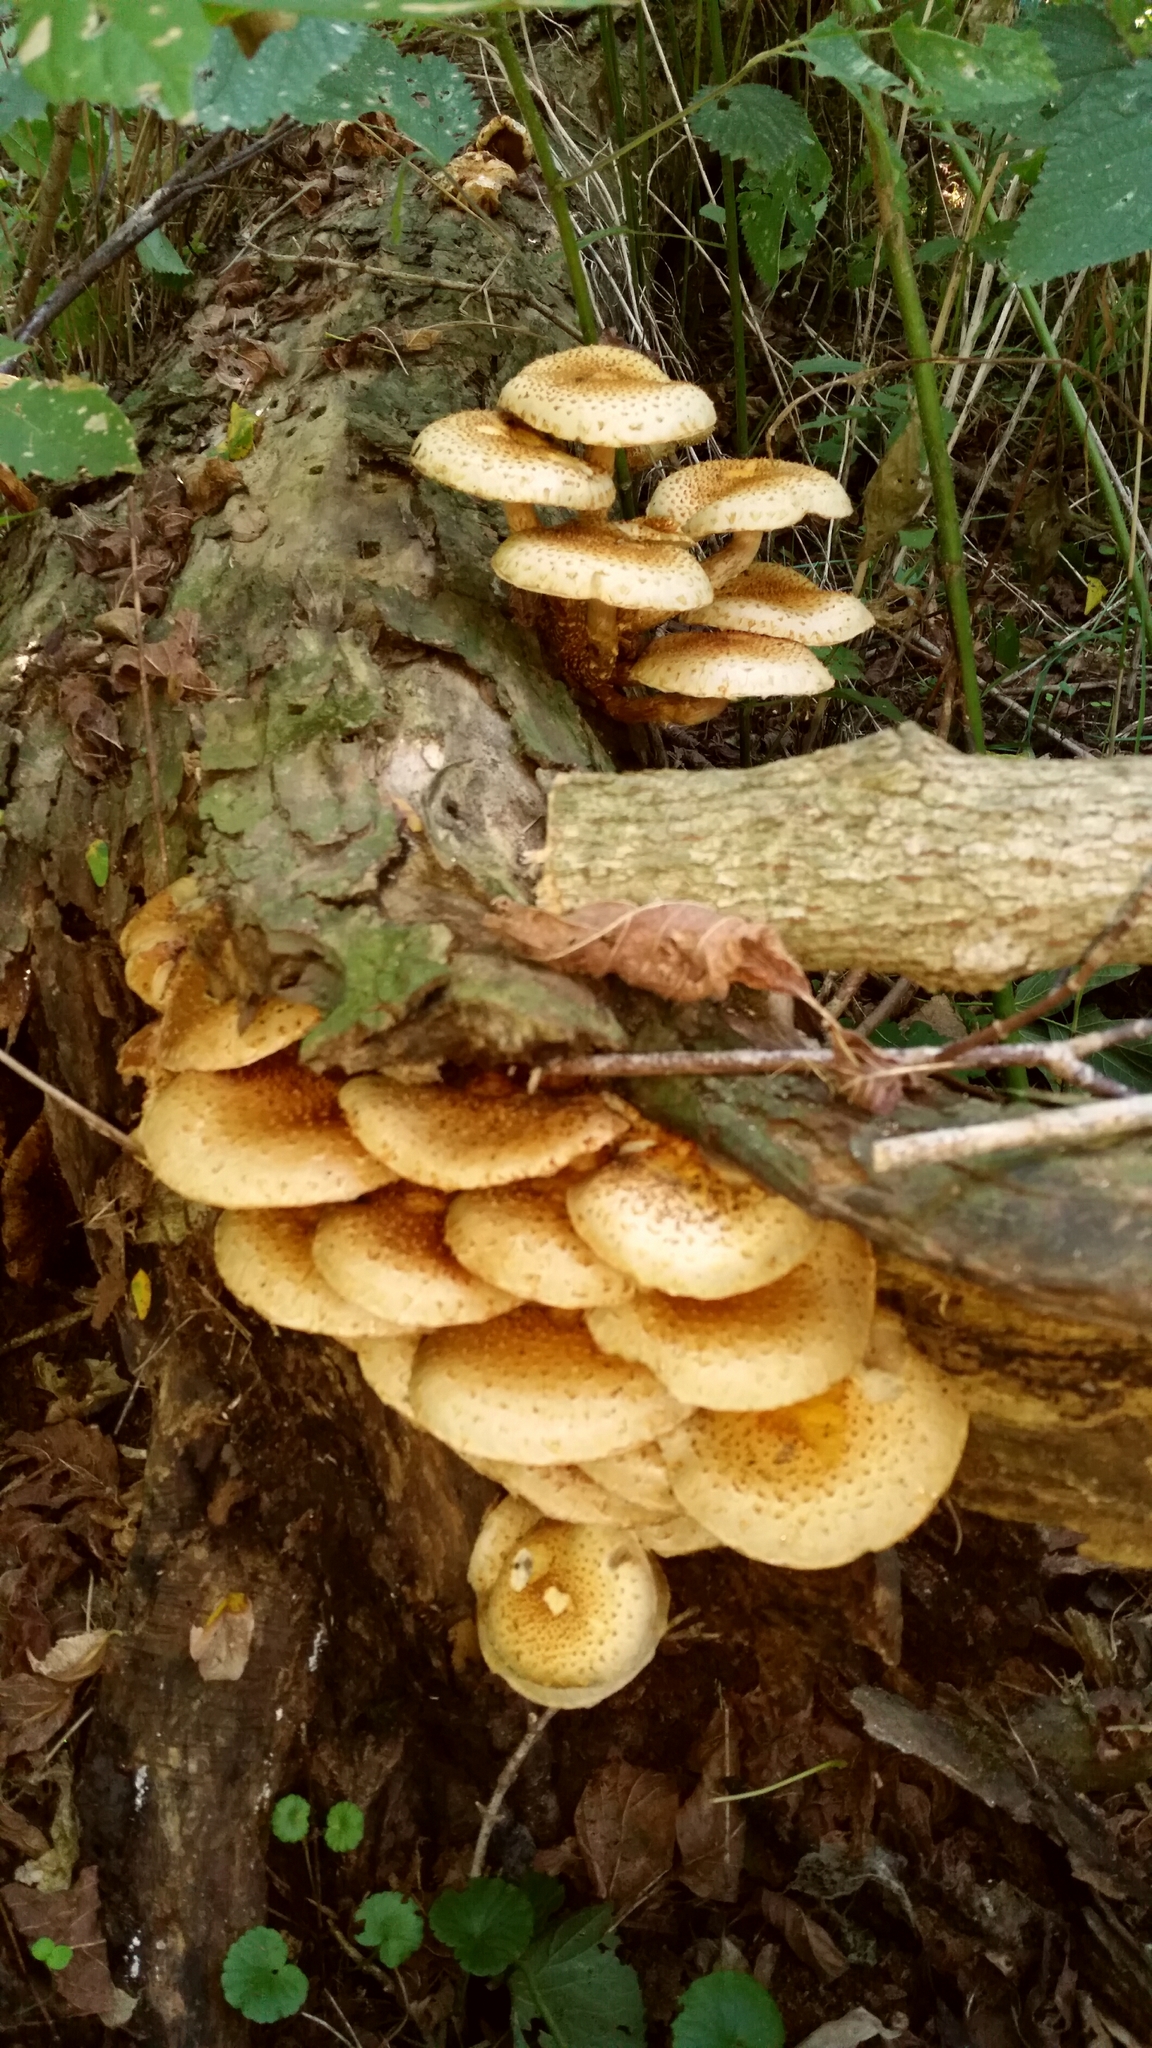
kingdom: Fungi
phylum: Basidiomycota
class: Agaricomycetes
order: Agaricales
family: Strophariaceae
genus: Pholiota
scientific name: Pholiota squarrosoides
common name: Sharp-scaly pholiota
